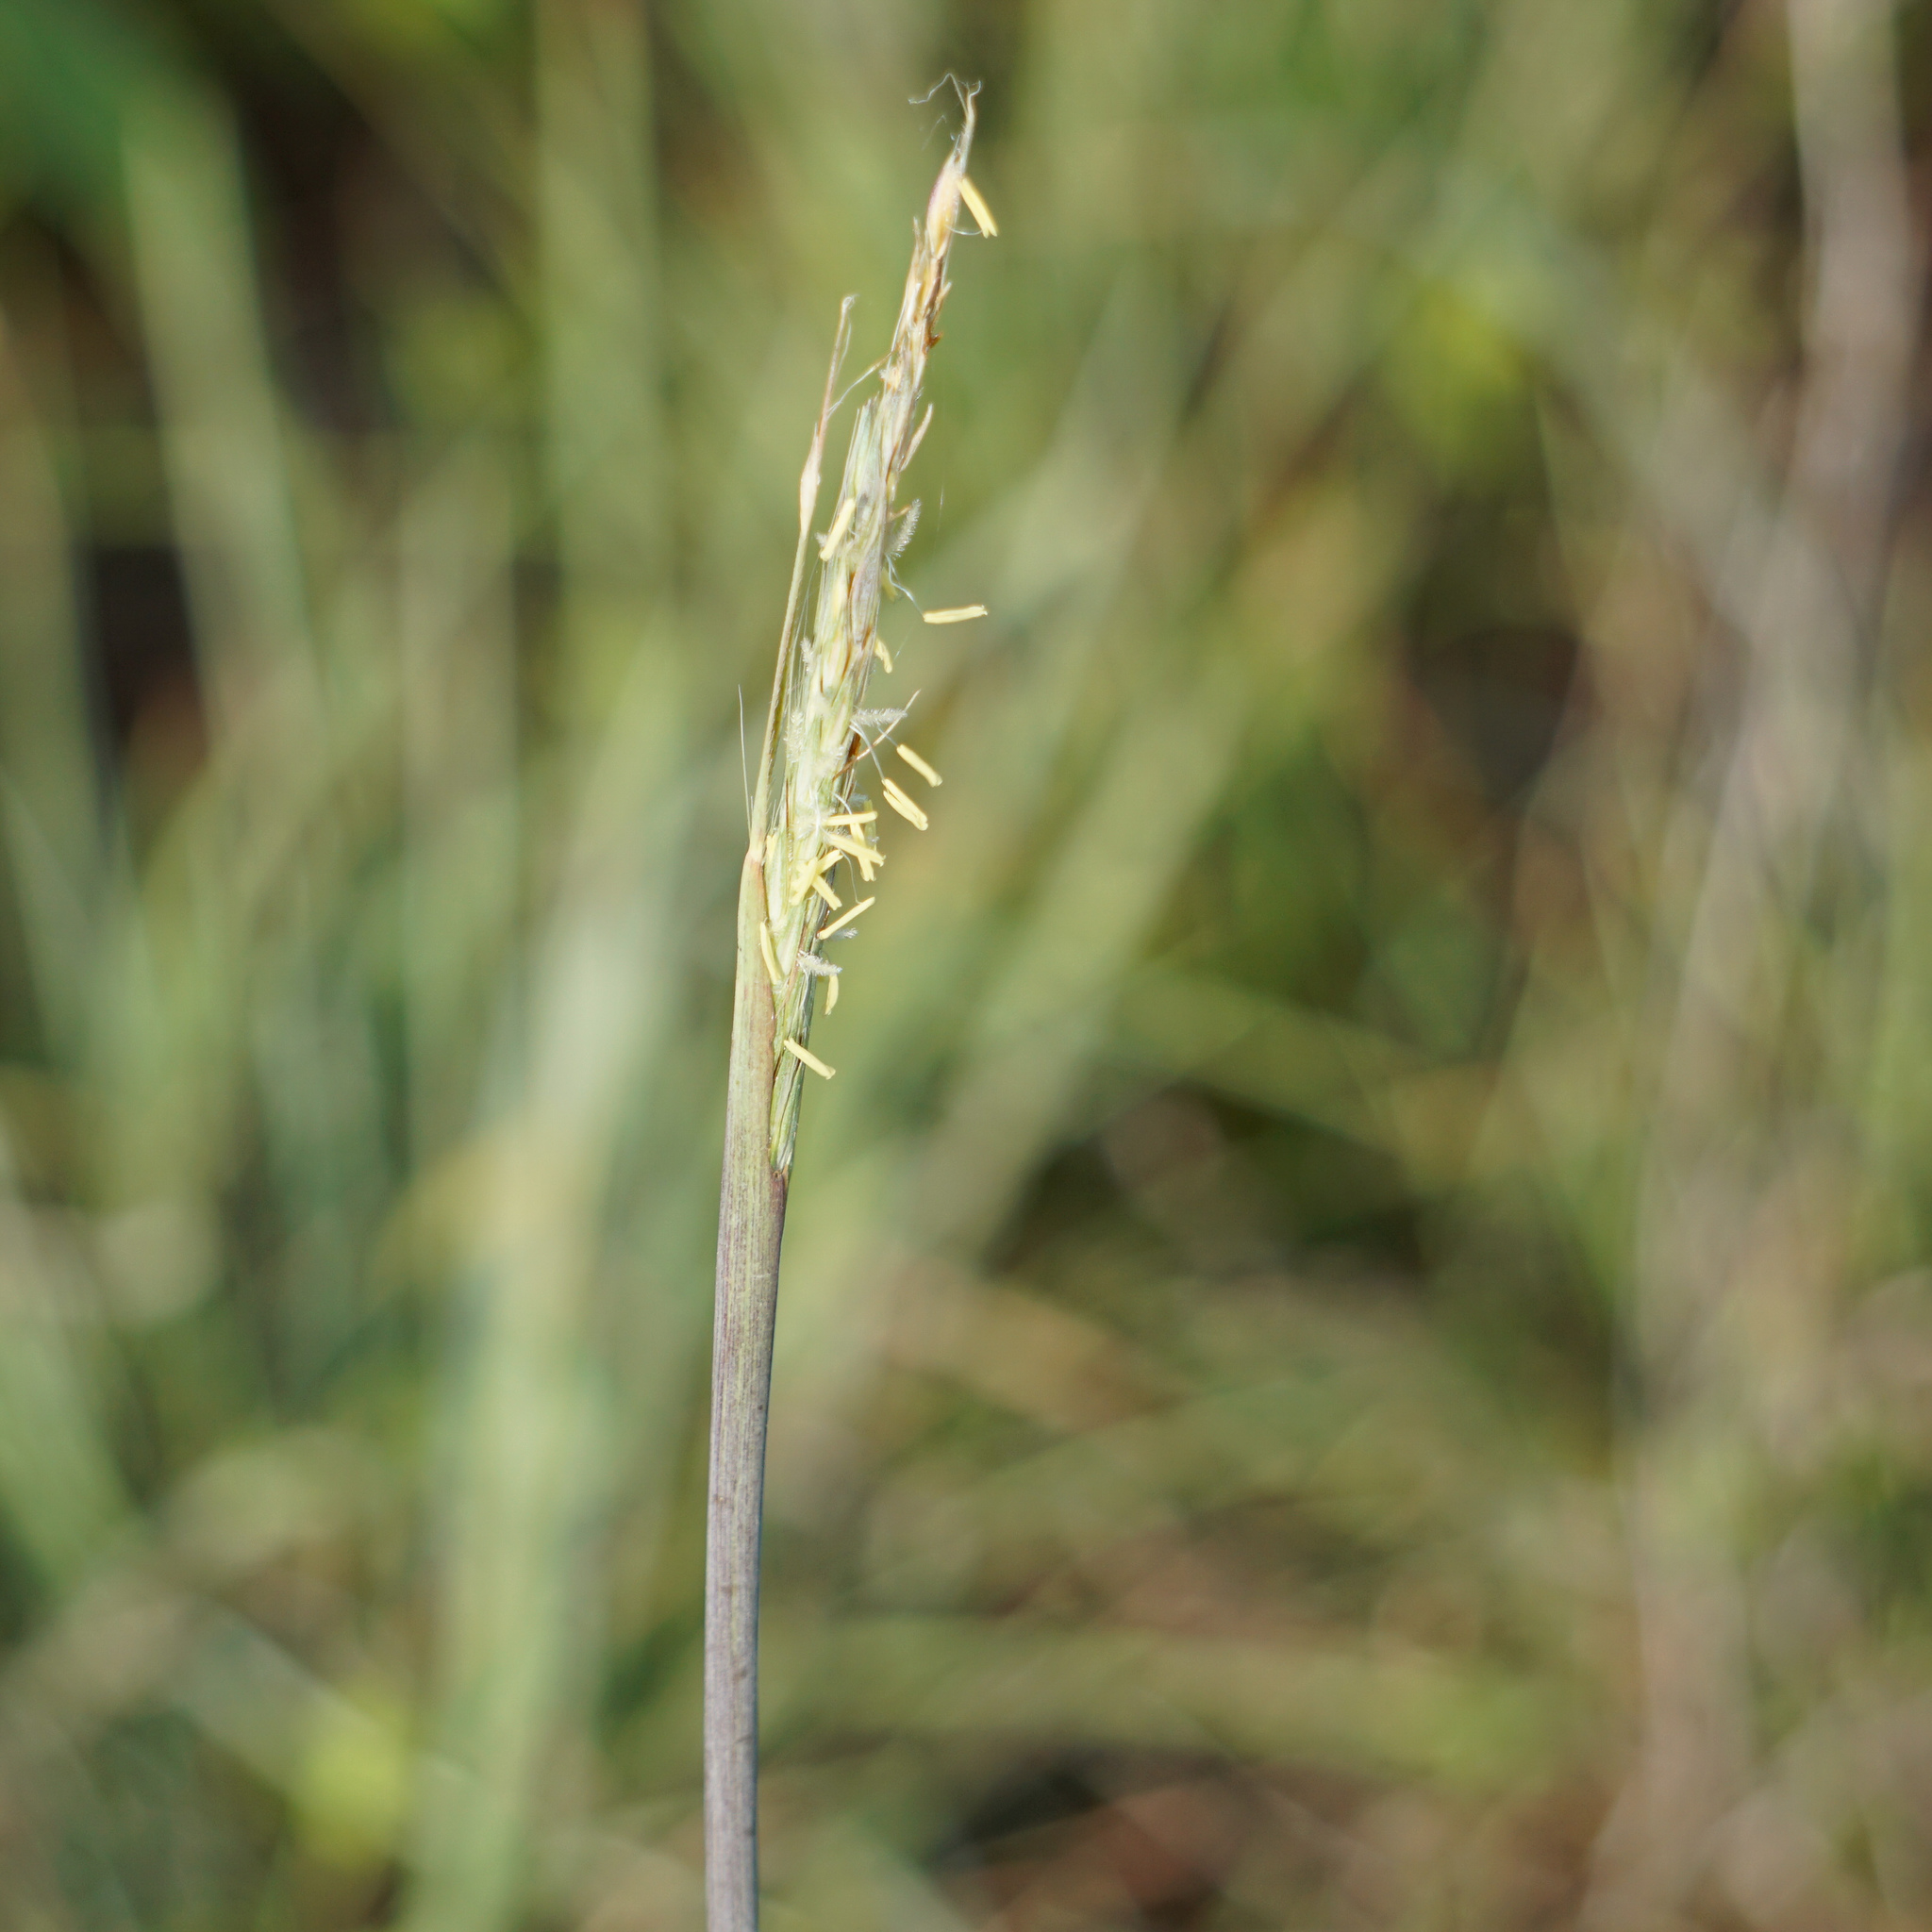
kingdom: Plantae
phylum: Tracheophyta
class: Liliopsida
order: Poales
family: Poaceae
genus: Andropogon
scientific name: Andropogon gerardi
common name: Big bluestem
